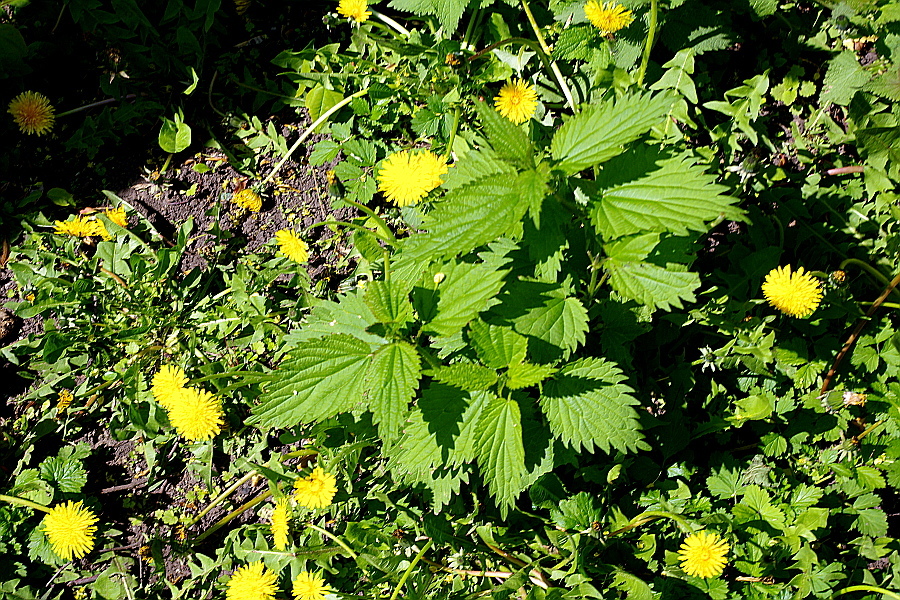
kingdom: Plantae
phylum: Tracheophyta
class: Magnoliopsida
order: Rosales
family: Urticaceae
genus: Urtica
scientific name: Urtica dioica
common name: Common nettle
